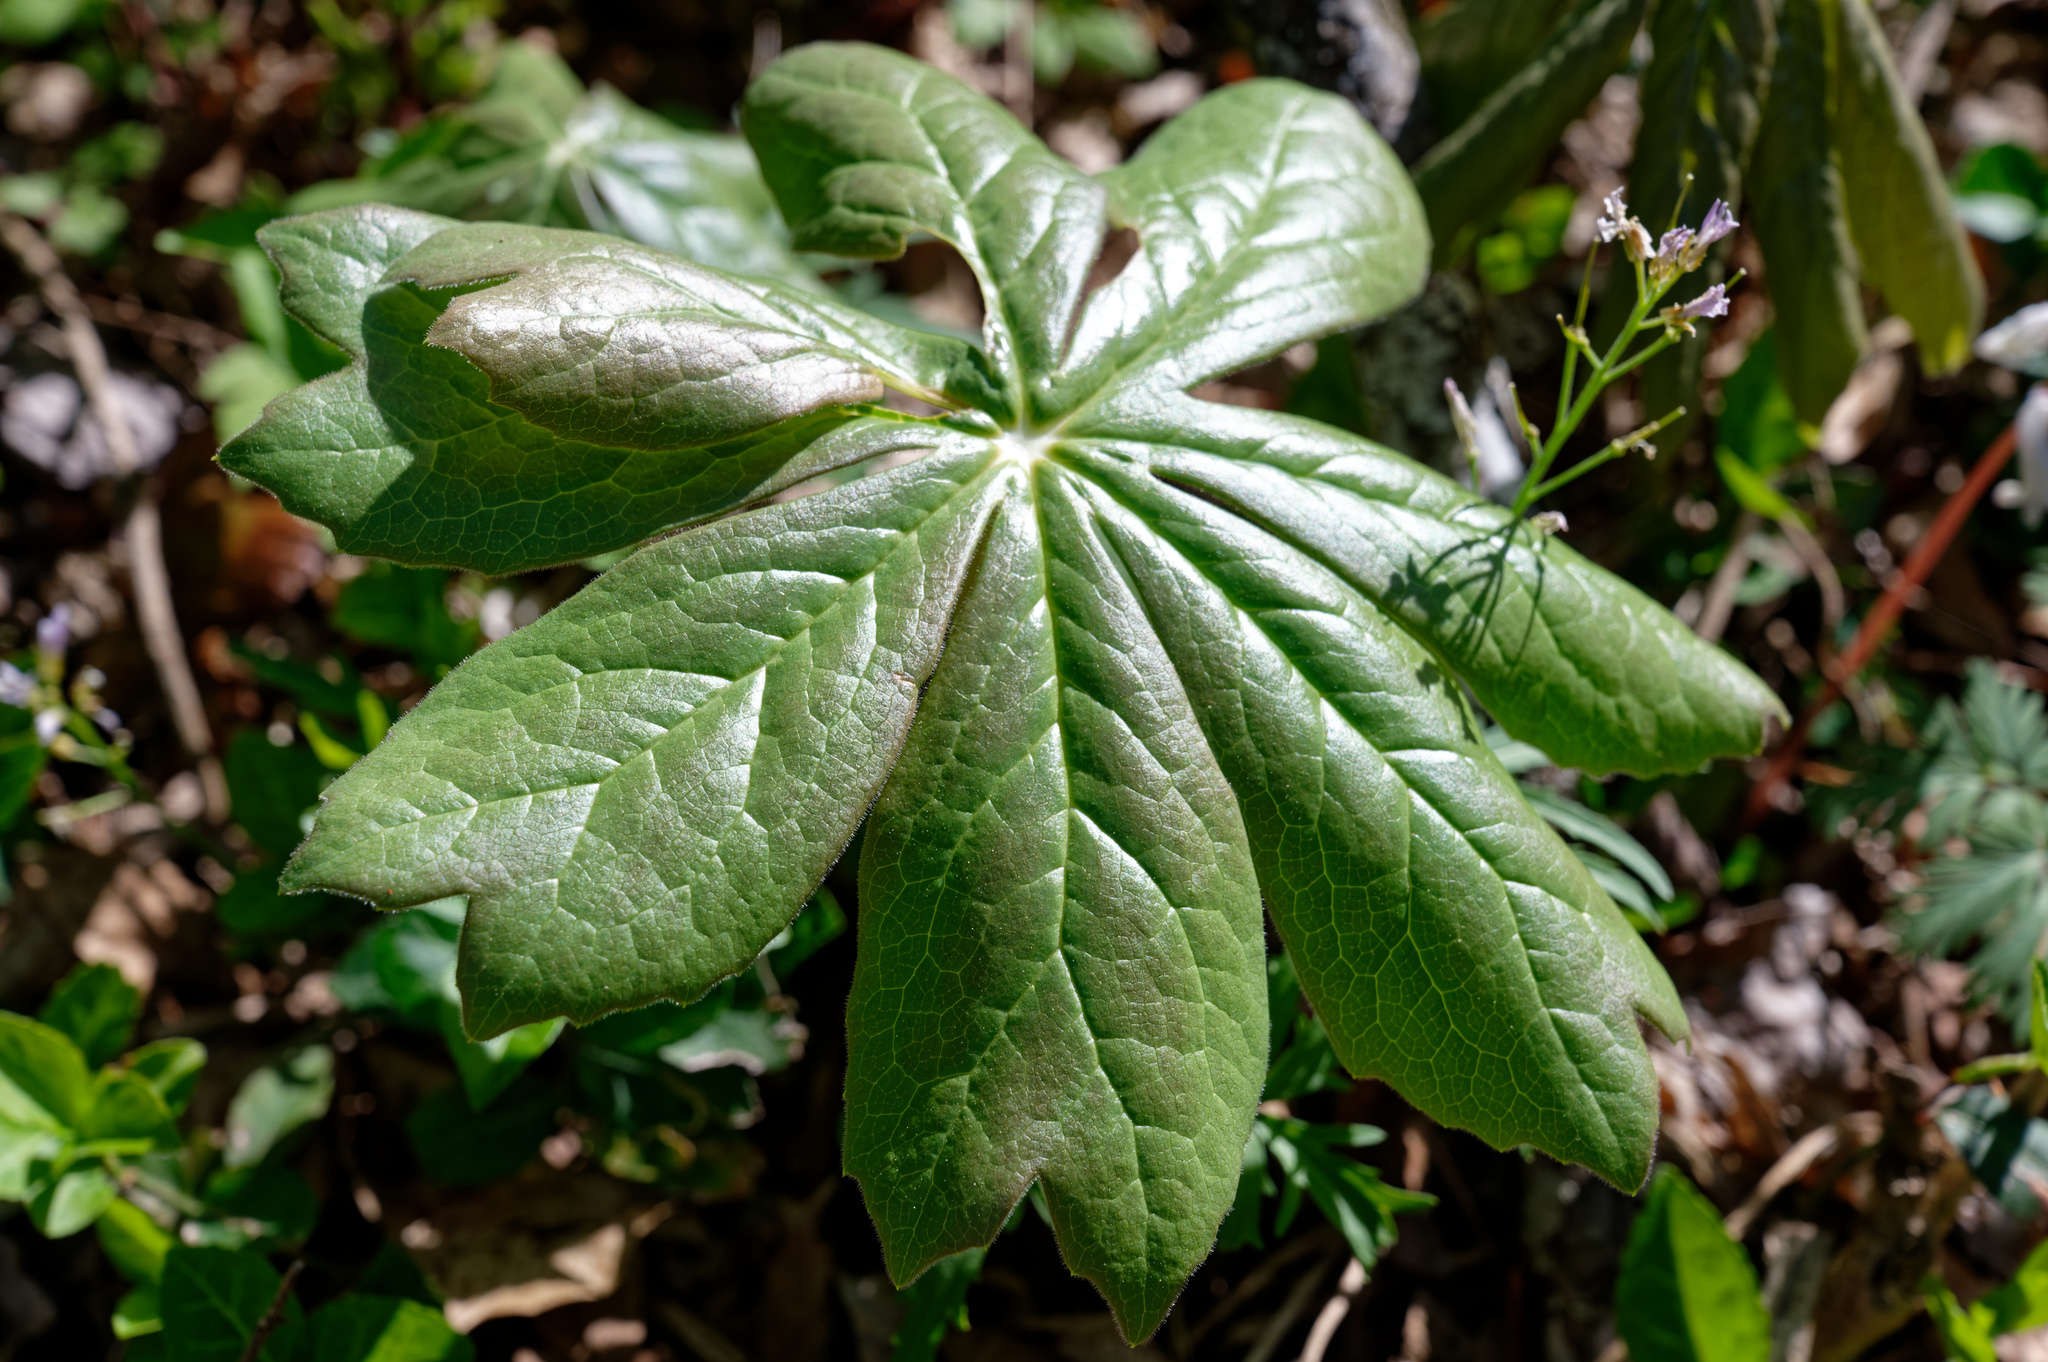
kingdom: Plantae
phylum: Tracheophyta
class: Magnoliopsida
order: Ranunculales
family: Berberidaceae
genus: Podophyllum
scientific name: Podophyllum peltatum
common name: Wild mandrake
